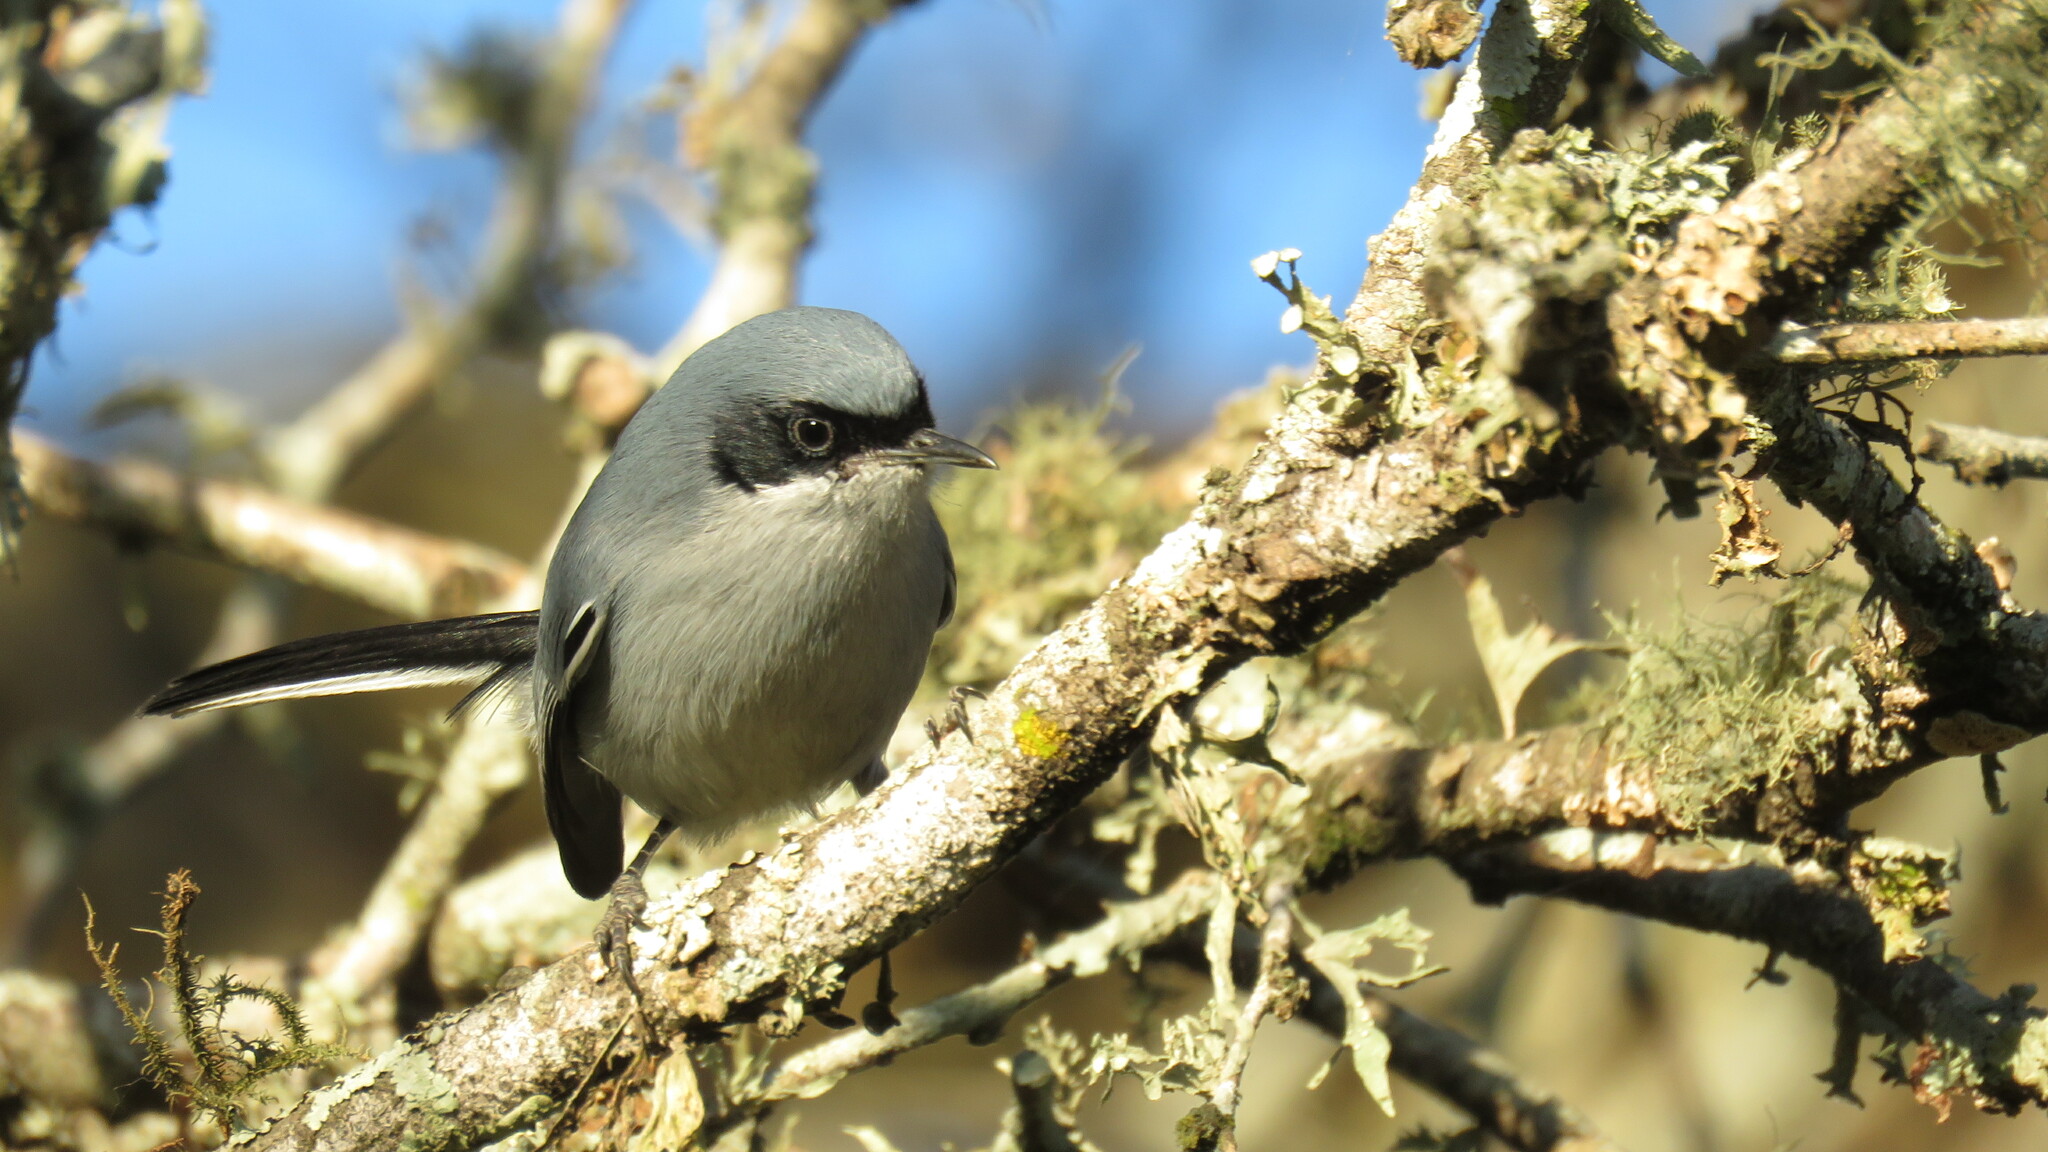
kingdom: Animalia
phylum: Chordata
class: Aves
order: Passeriformes
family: Polioptilidae
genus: Polioptila
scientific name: Polioptila dumicola
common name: Masked gnatcatcher
